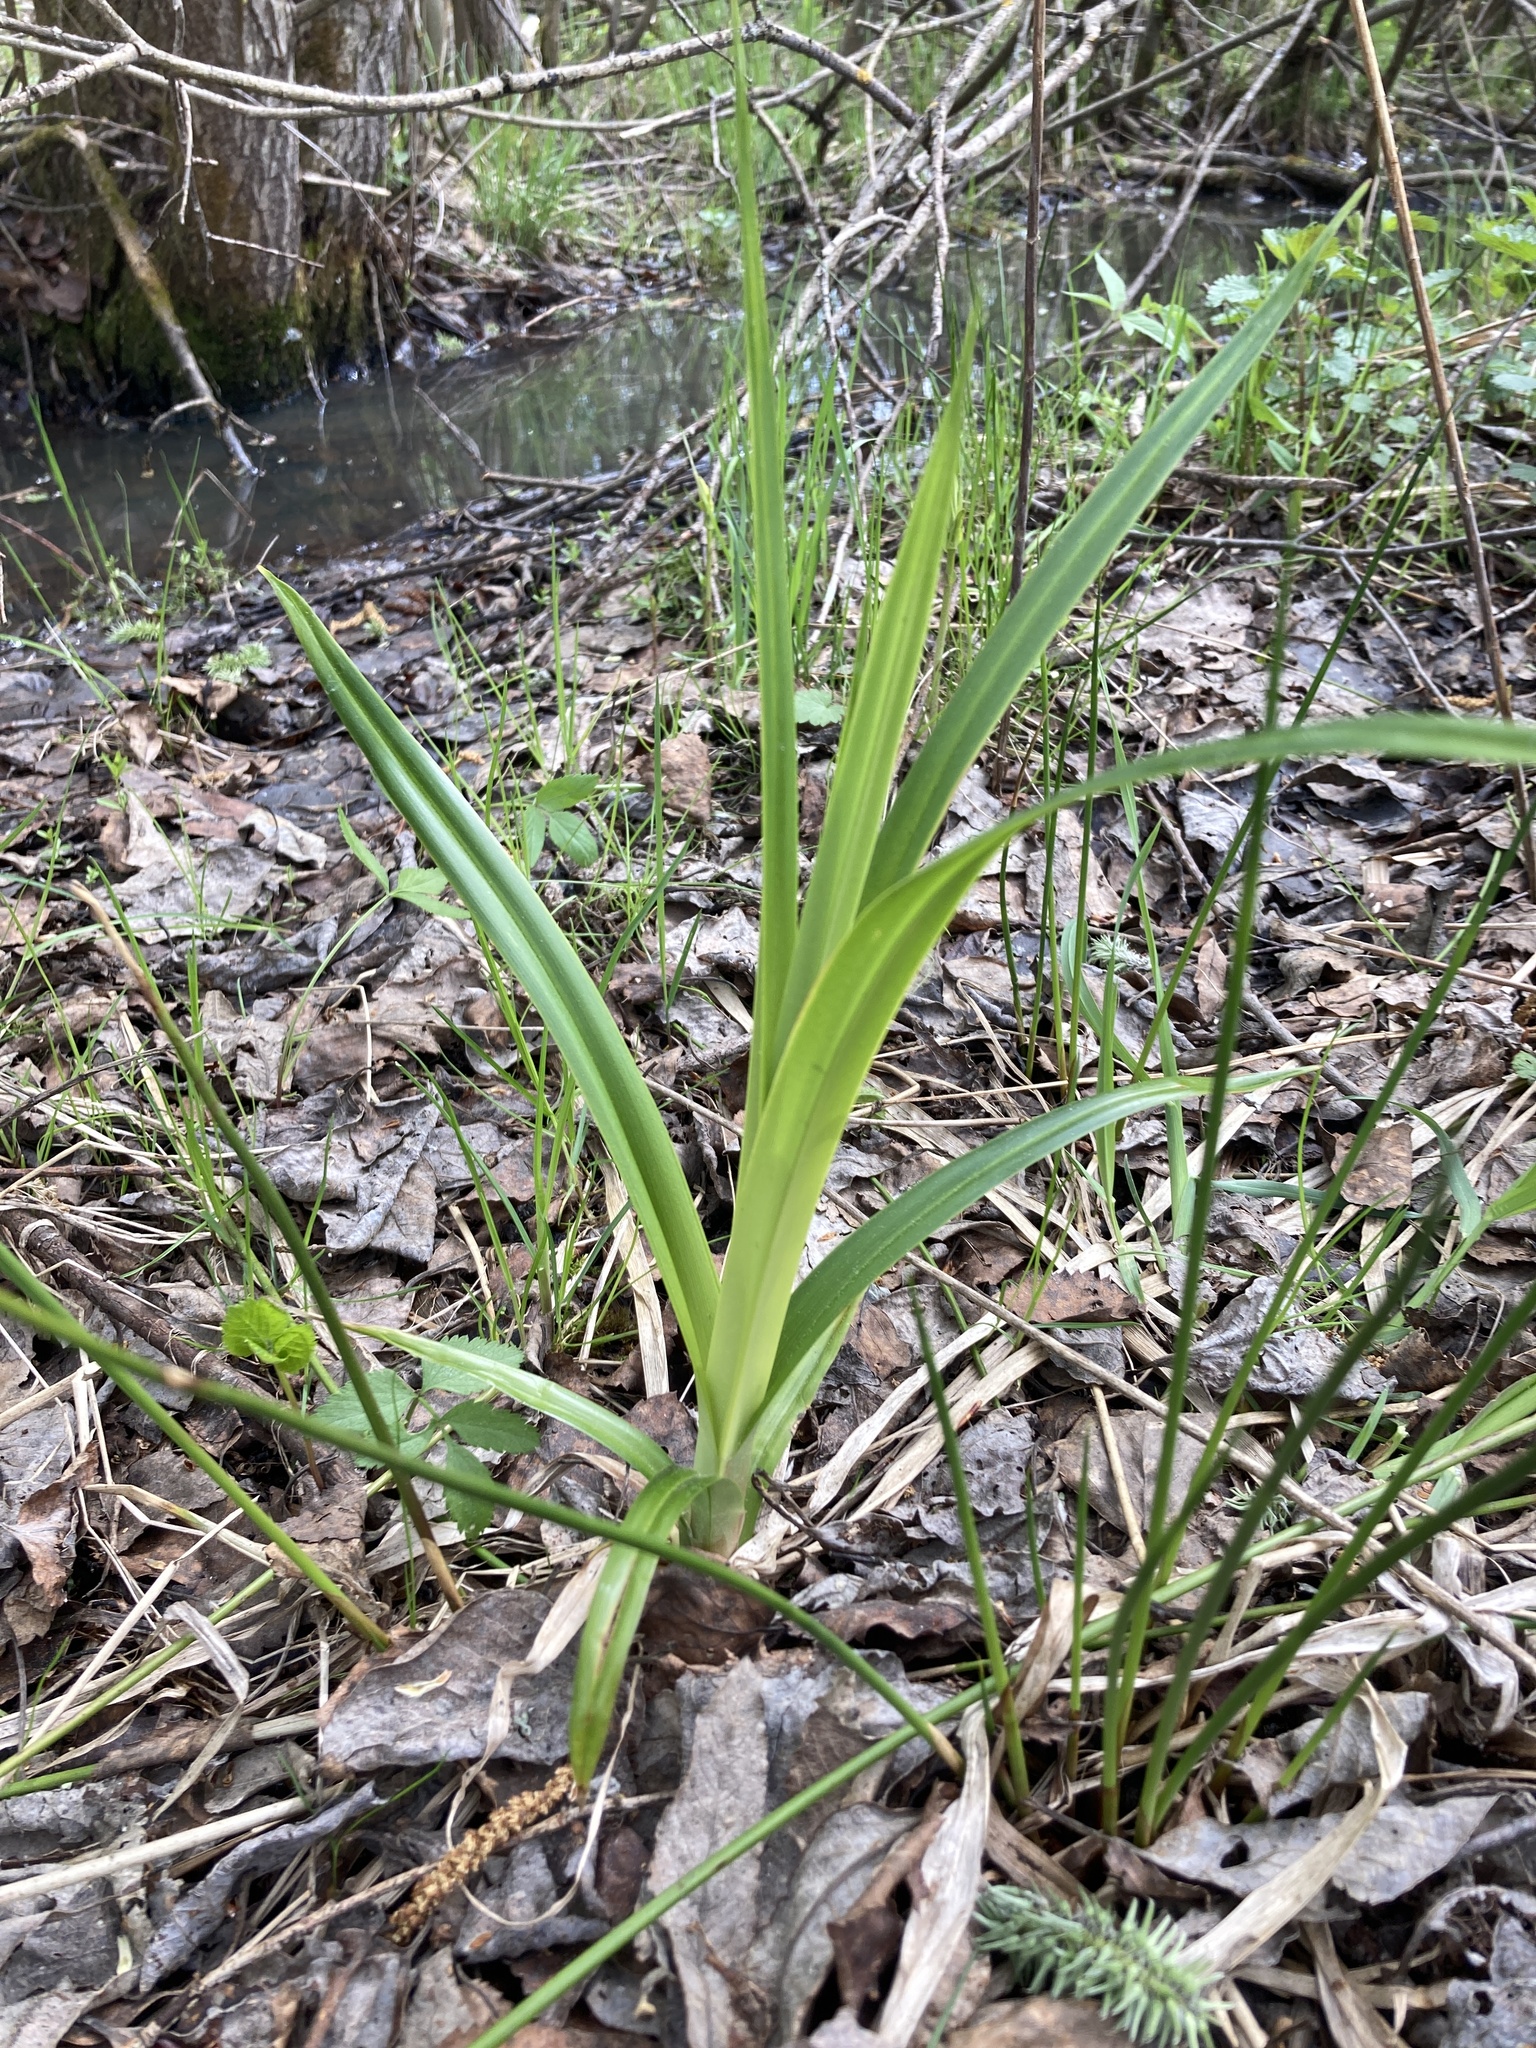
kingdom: Plantae
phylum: Tracheophyta
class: Liliopsida
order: Poales
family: Cyperaceae
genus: Scirpus
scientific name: Scirpus sylvaticus
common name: Wood club-rush
